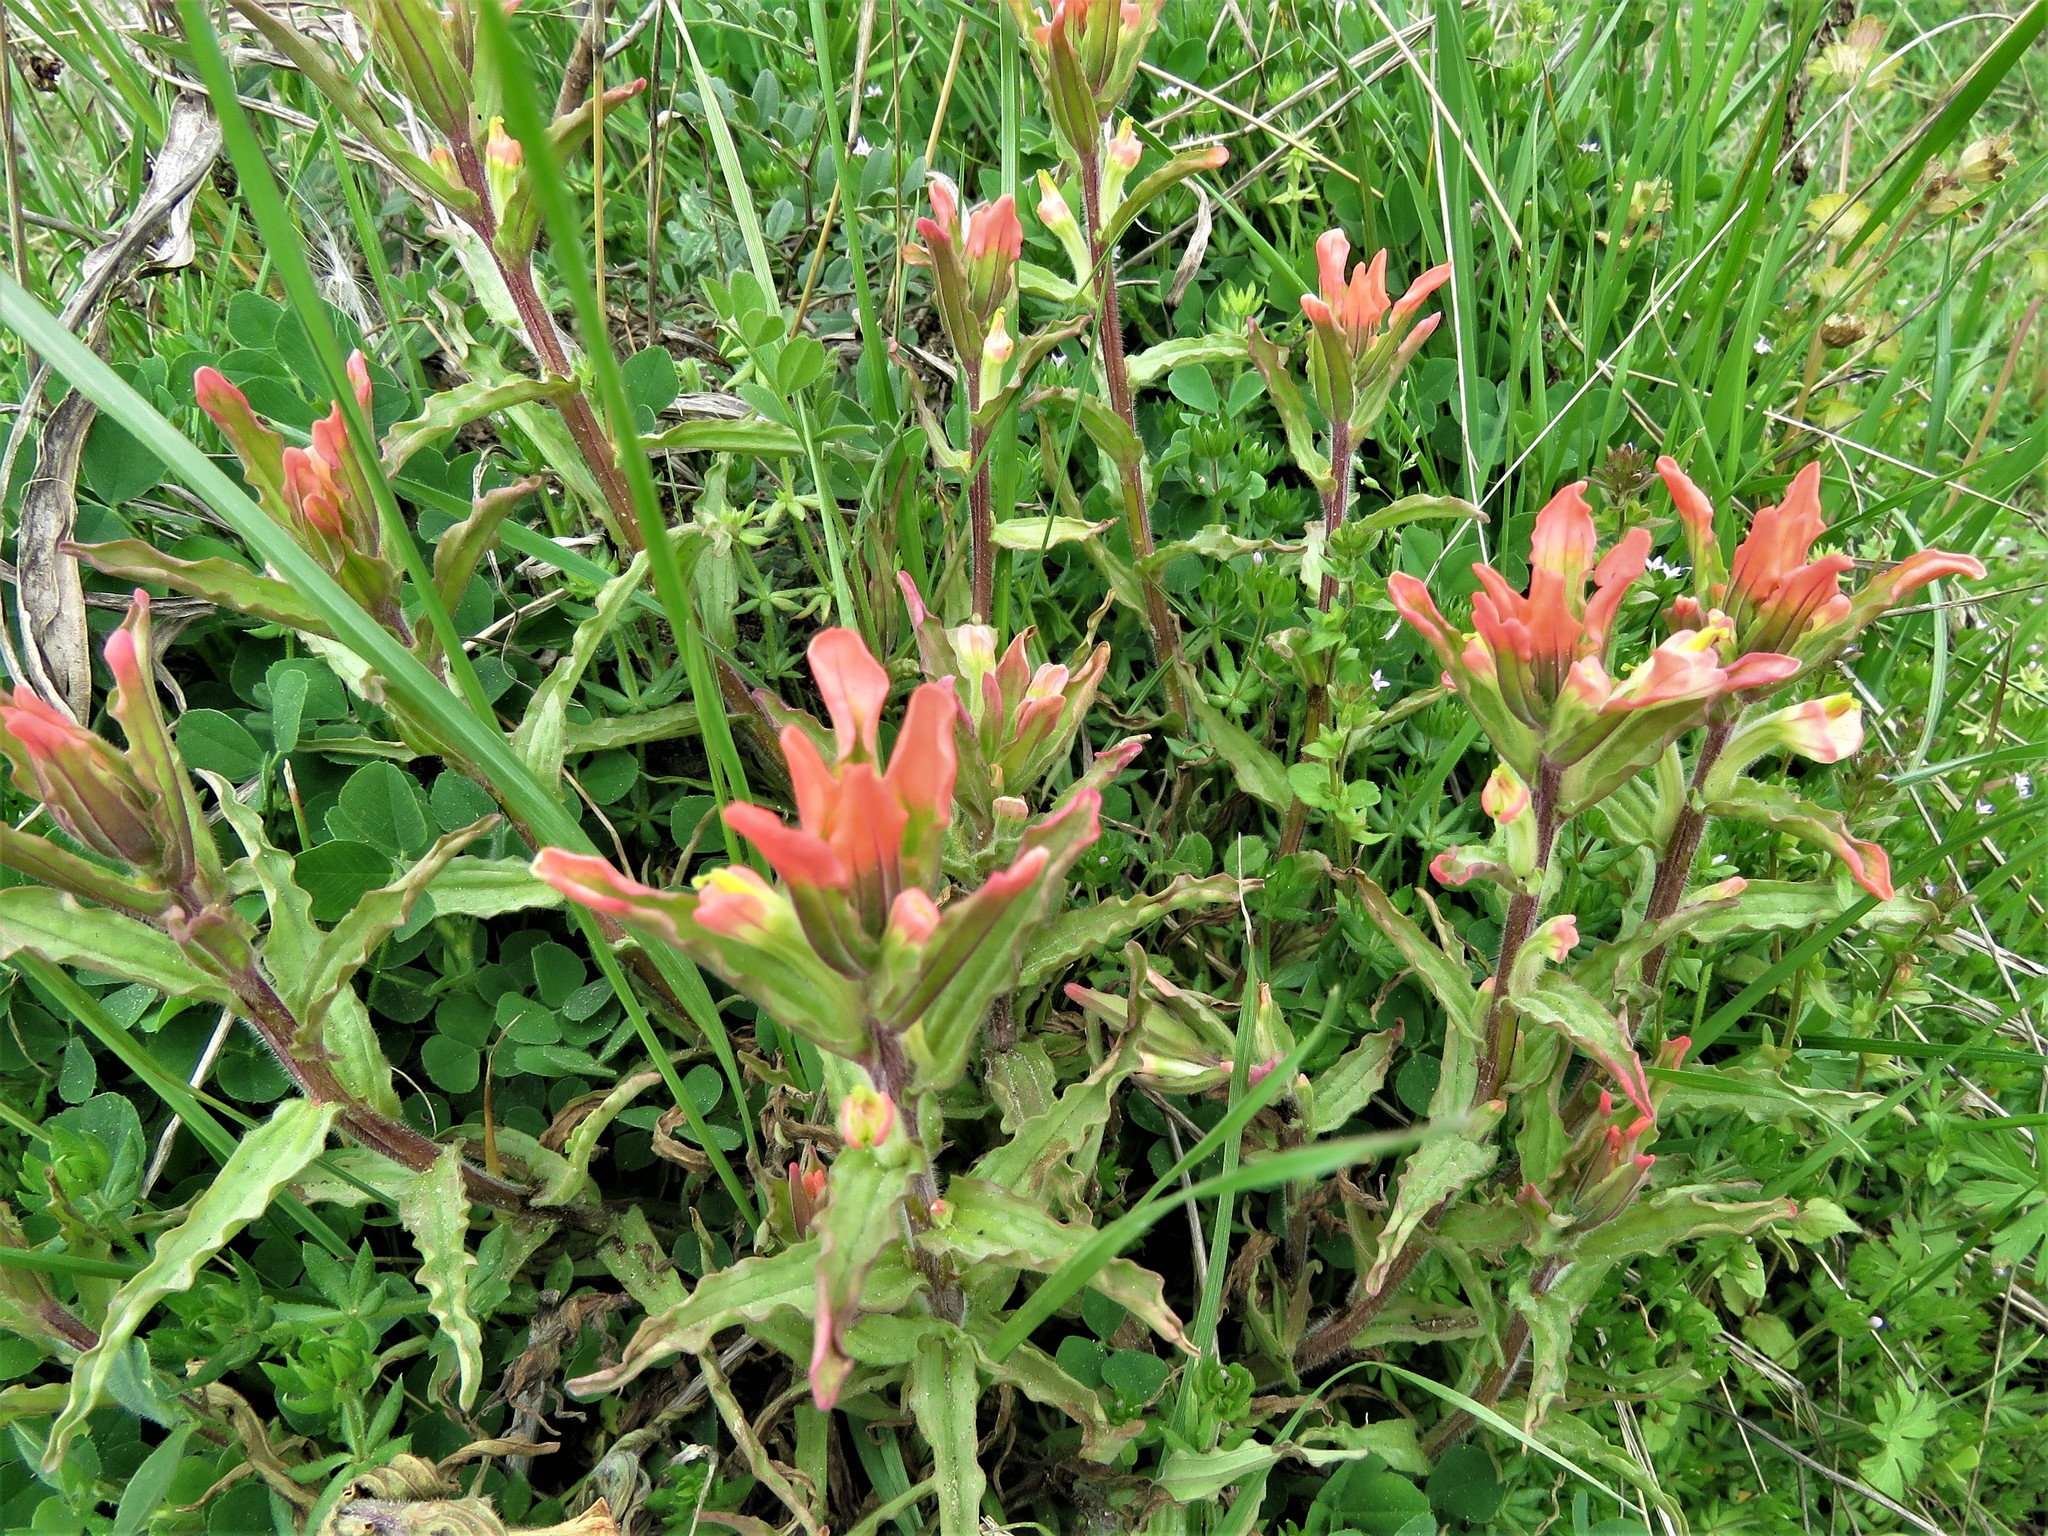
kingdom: Plantae
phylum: Tracheophyta
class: Magnoliopsida
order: Lamiales
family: Orobanchaceae
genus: Castilleja
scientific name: Castilleja indivisa
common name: Texas paintbrush
